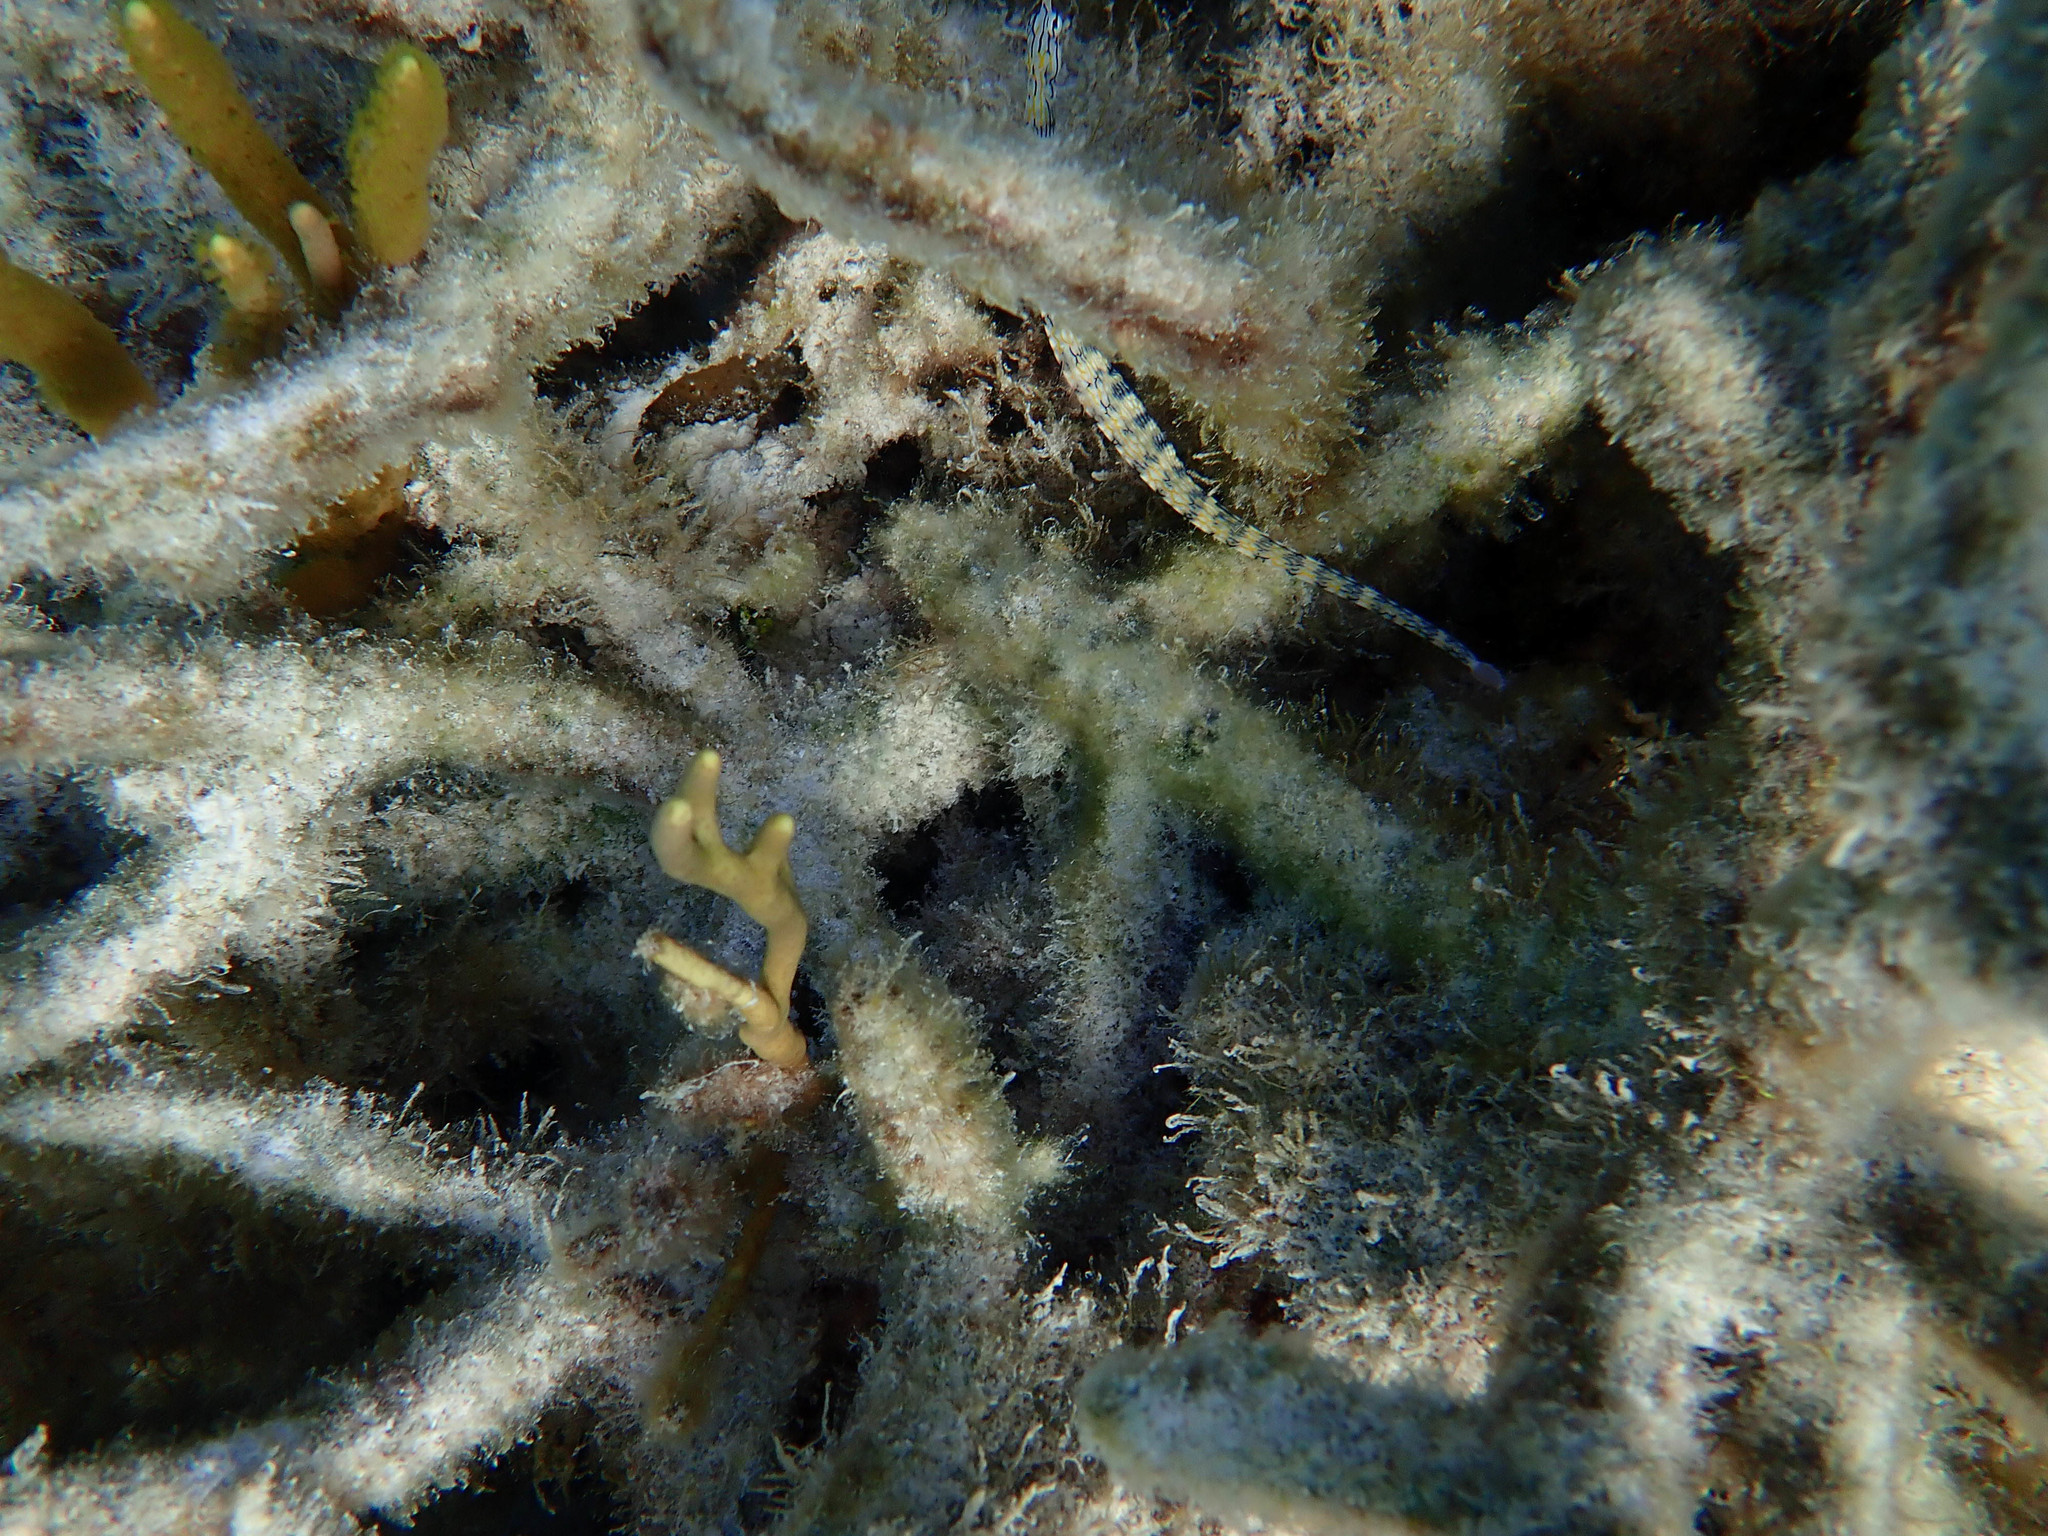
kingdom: Animalia
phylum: Chordata
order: Syngnathiformes
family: Syngnathidae
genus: Corythoichthys
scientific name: Corythoichthys flavofasciatus
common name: Banded pipefish
